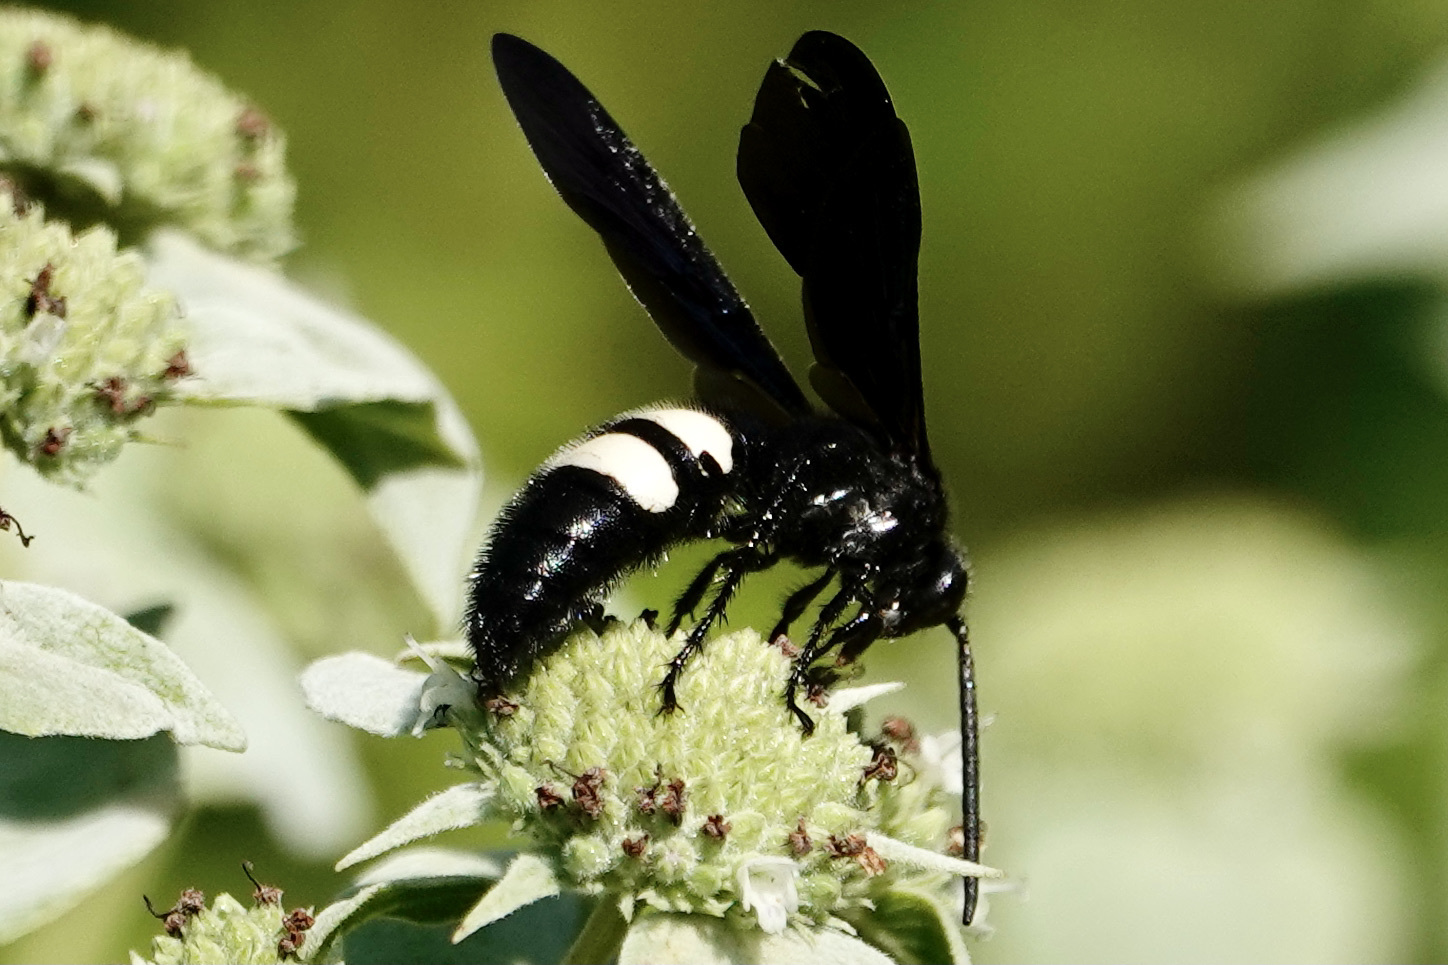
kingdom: Animalia
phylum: Arthropoda
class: Insecta
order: Hymenoptera
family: Scoliidae
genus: Scolia
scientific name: Scolia bicincta
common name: Double-banded scoliid wasp
